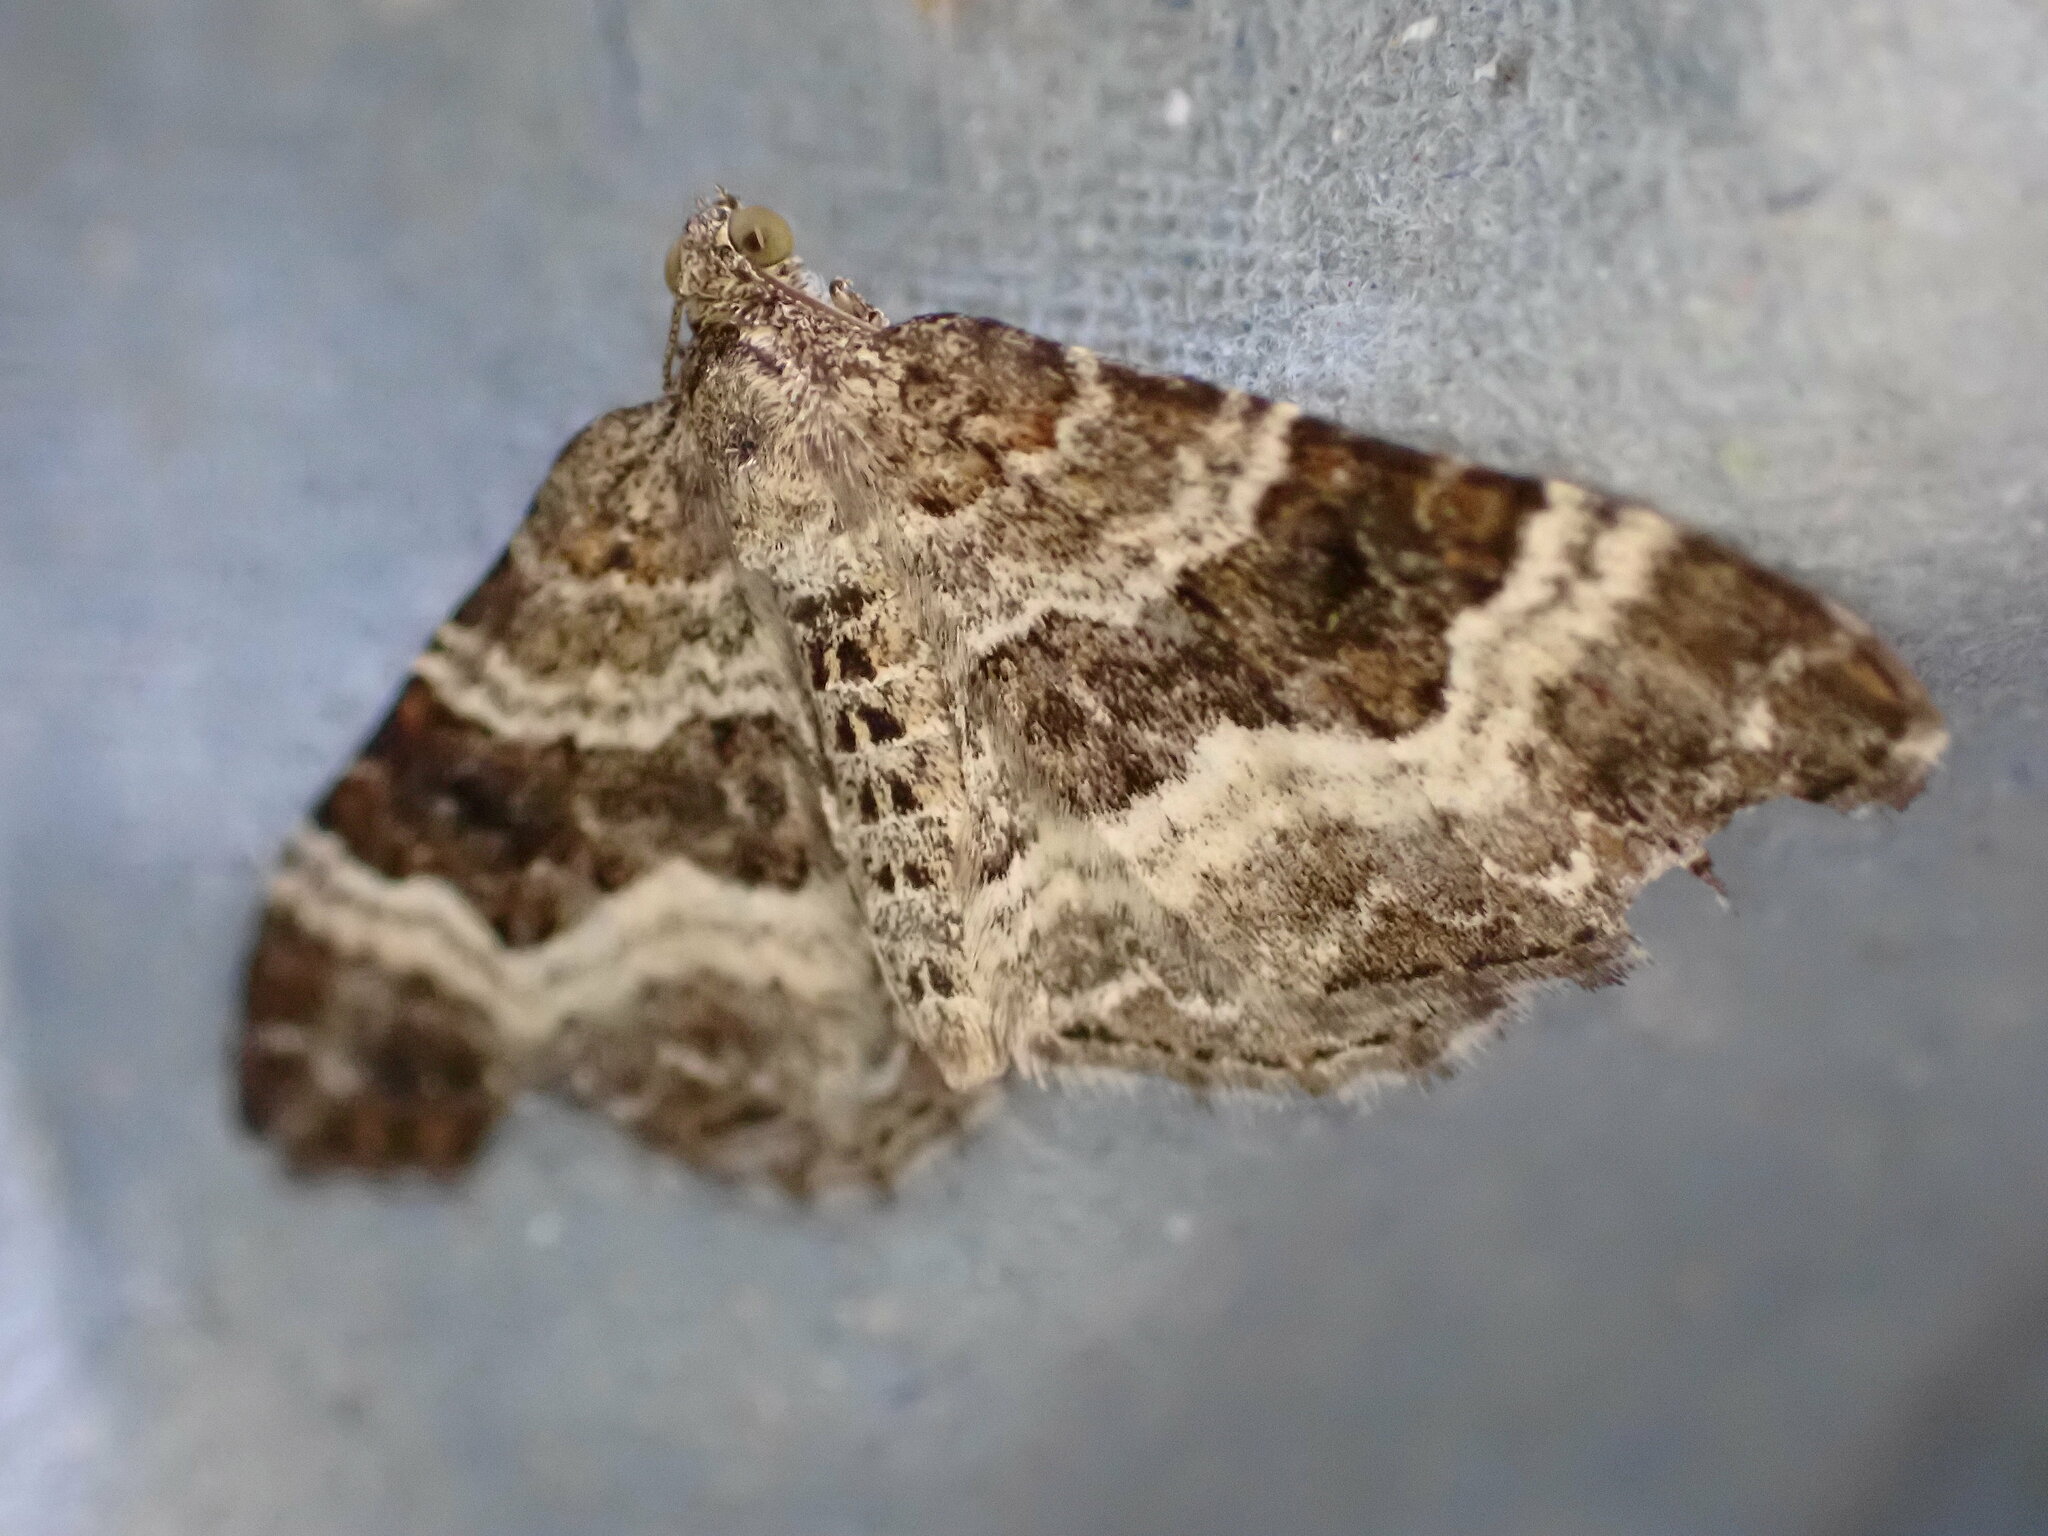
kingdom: Animalia
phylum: Arthropoda
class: Insecta
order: Lepidoptera
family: Geometridae
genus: Epirrhoe
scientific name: Epirrhoe alternata
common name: Common carpet
